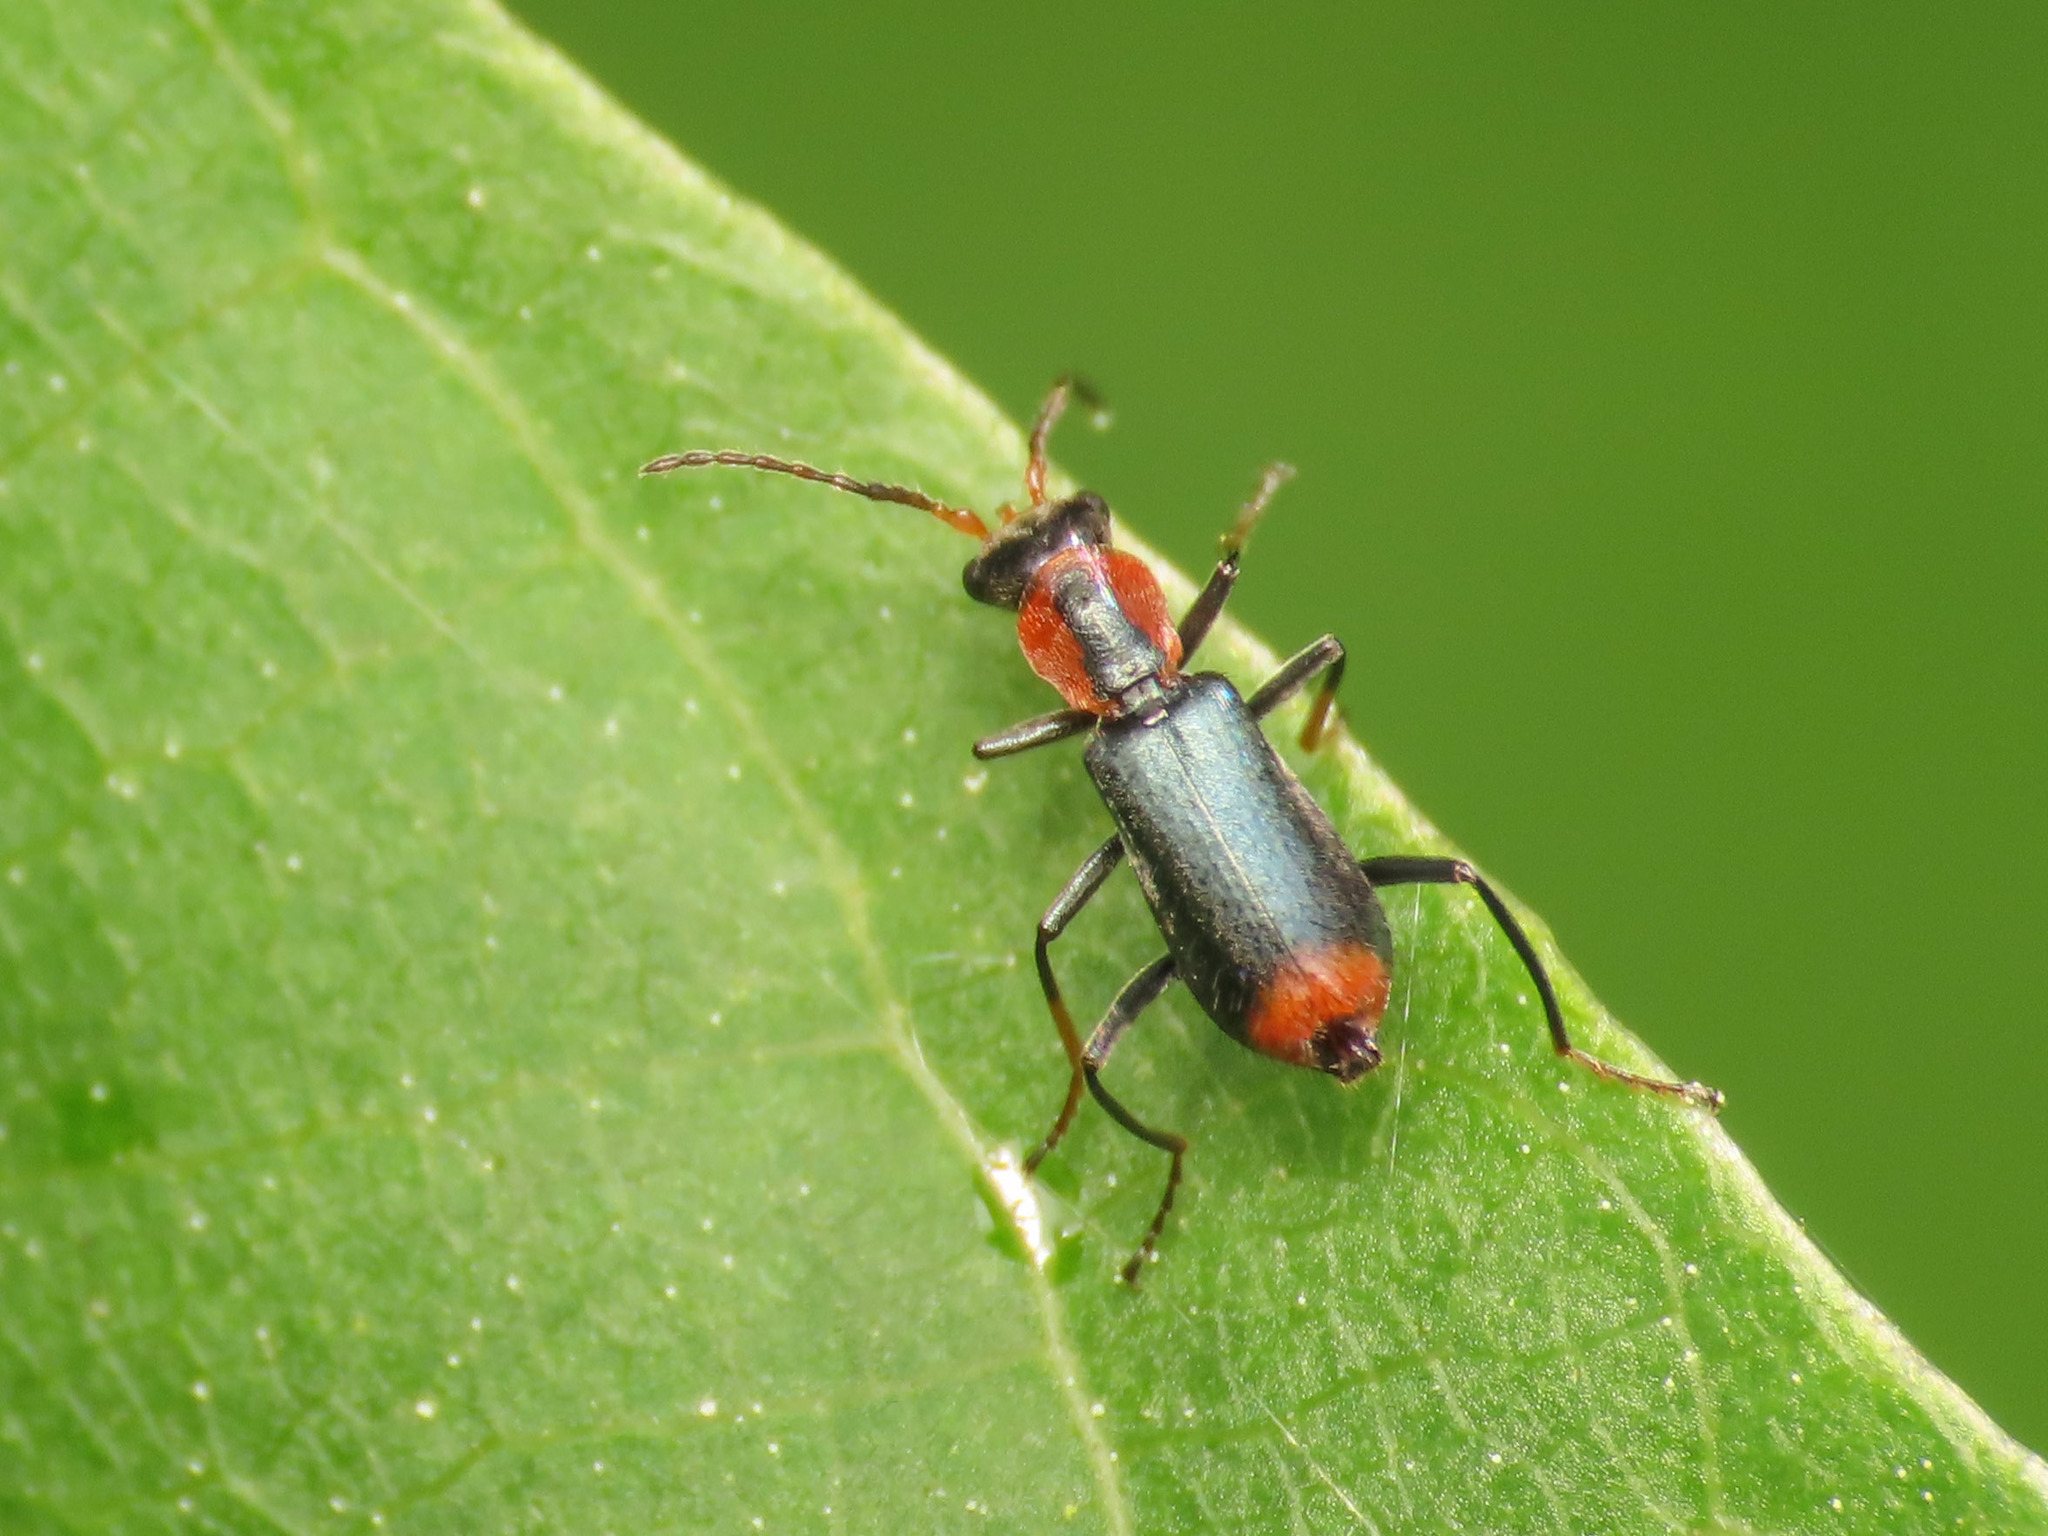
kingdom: Animalia
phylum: Arthropoda
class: Insecta
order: Coleoptera
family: Melyridae
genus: Cyrtosus
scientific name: Cyrtosus ovalis
